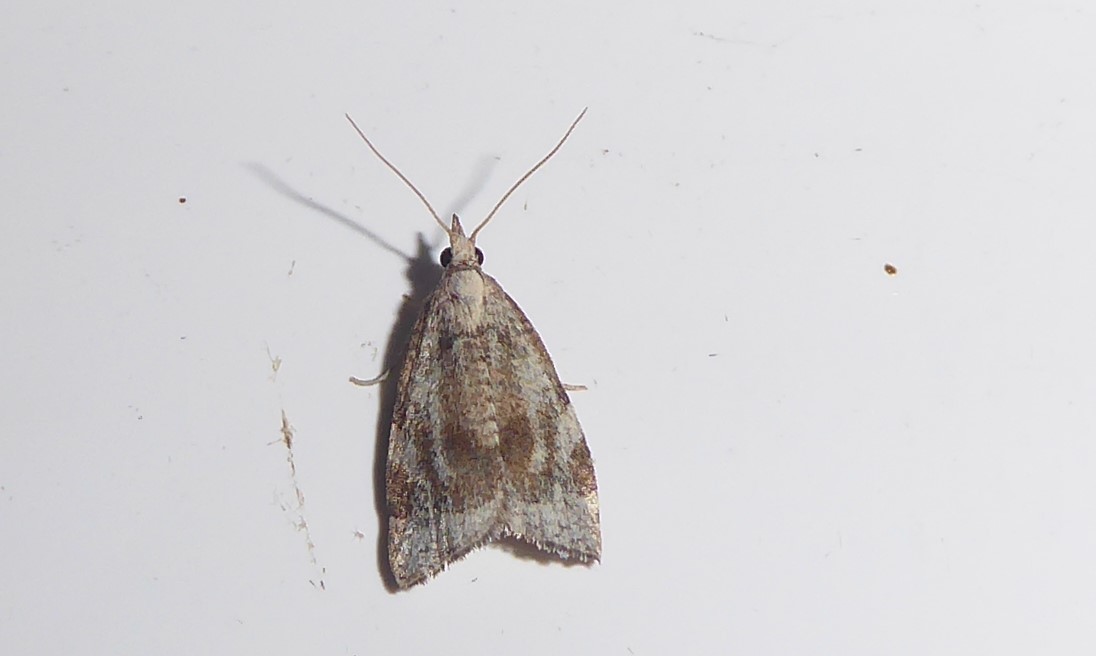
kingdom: Animalia
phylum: Arthropoda
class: Insecta
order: Lepidoptera
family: Tortricidae
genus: Catamacta
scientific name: Catamacta gavisana
